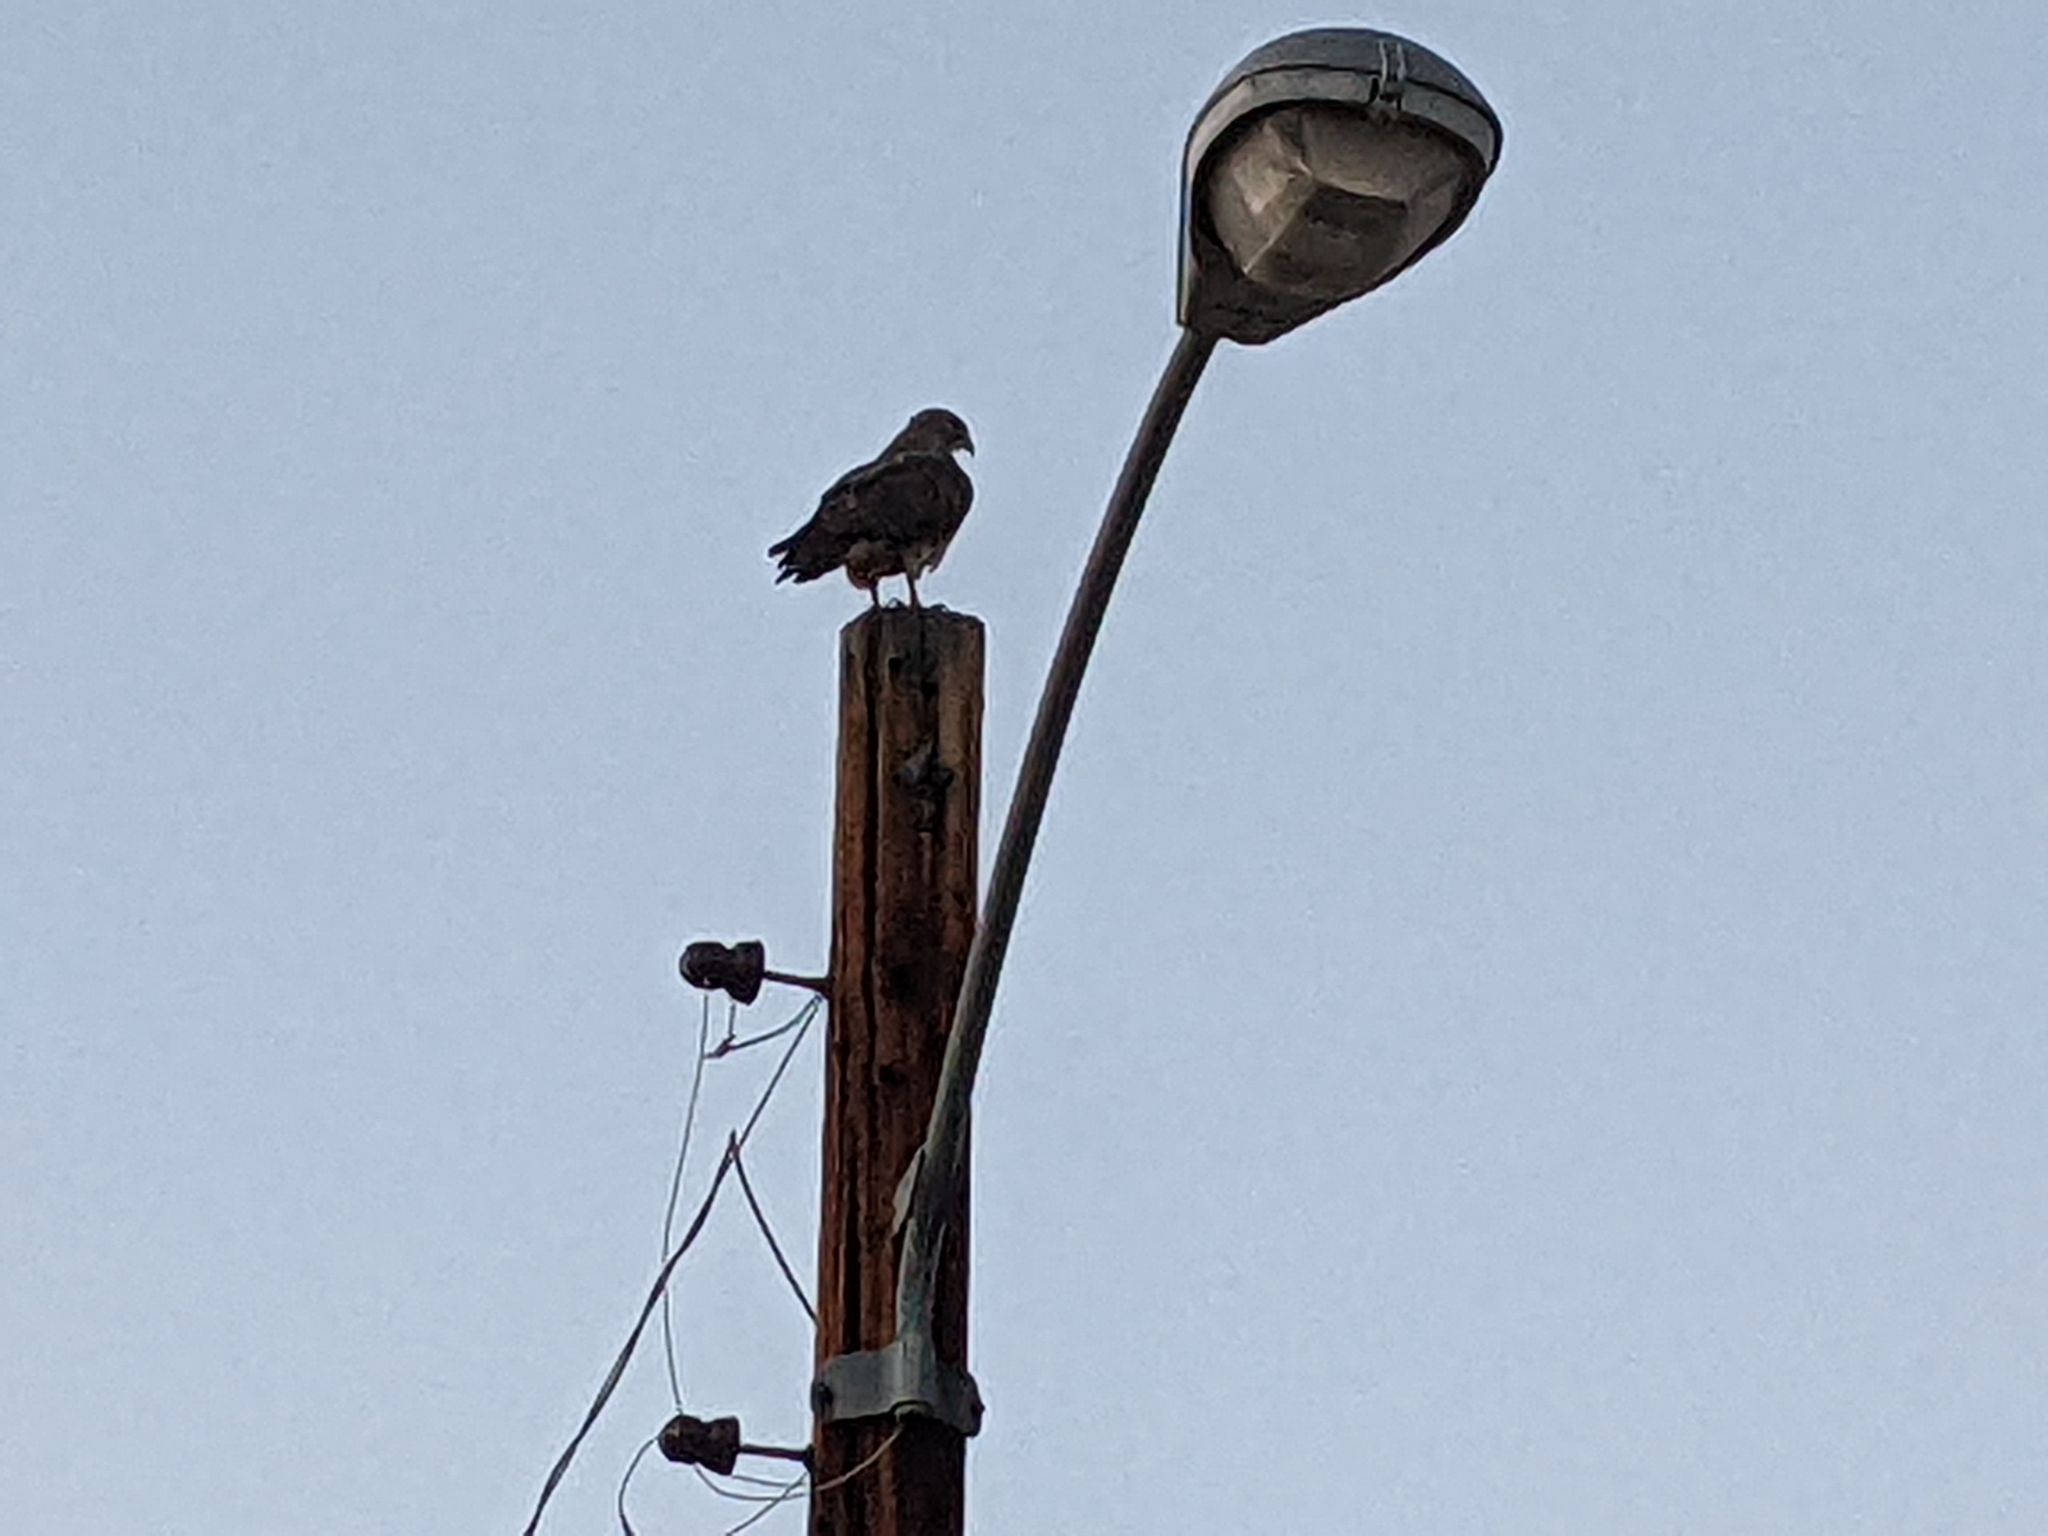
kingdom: Animalia
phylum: Chordata
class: Aves
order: Accipitriformes
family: Accipitridae
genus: Buteo
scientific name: Buteo swainsoni
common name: Swainson's hawk
